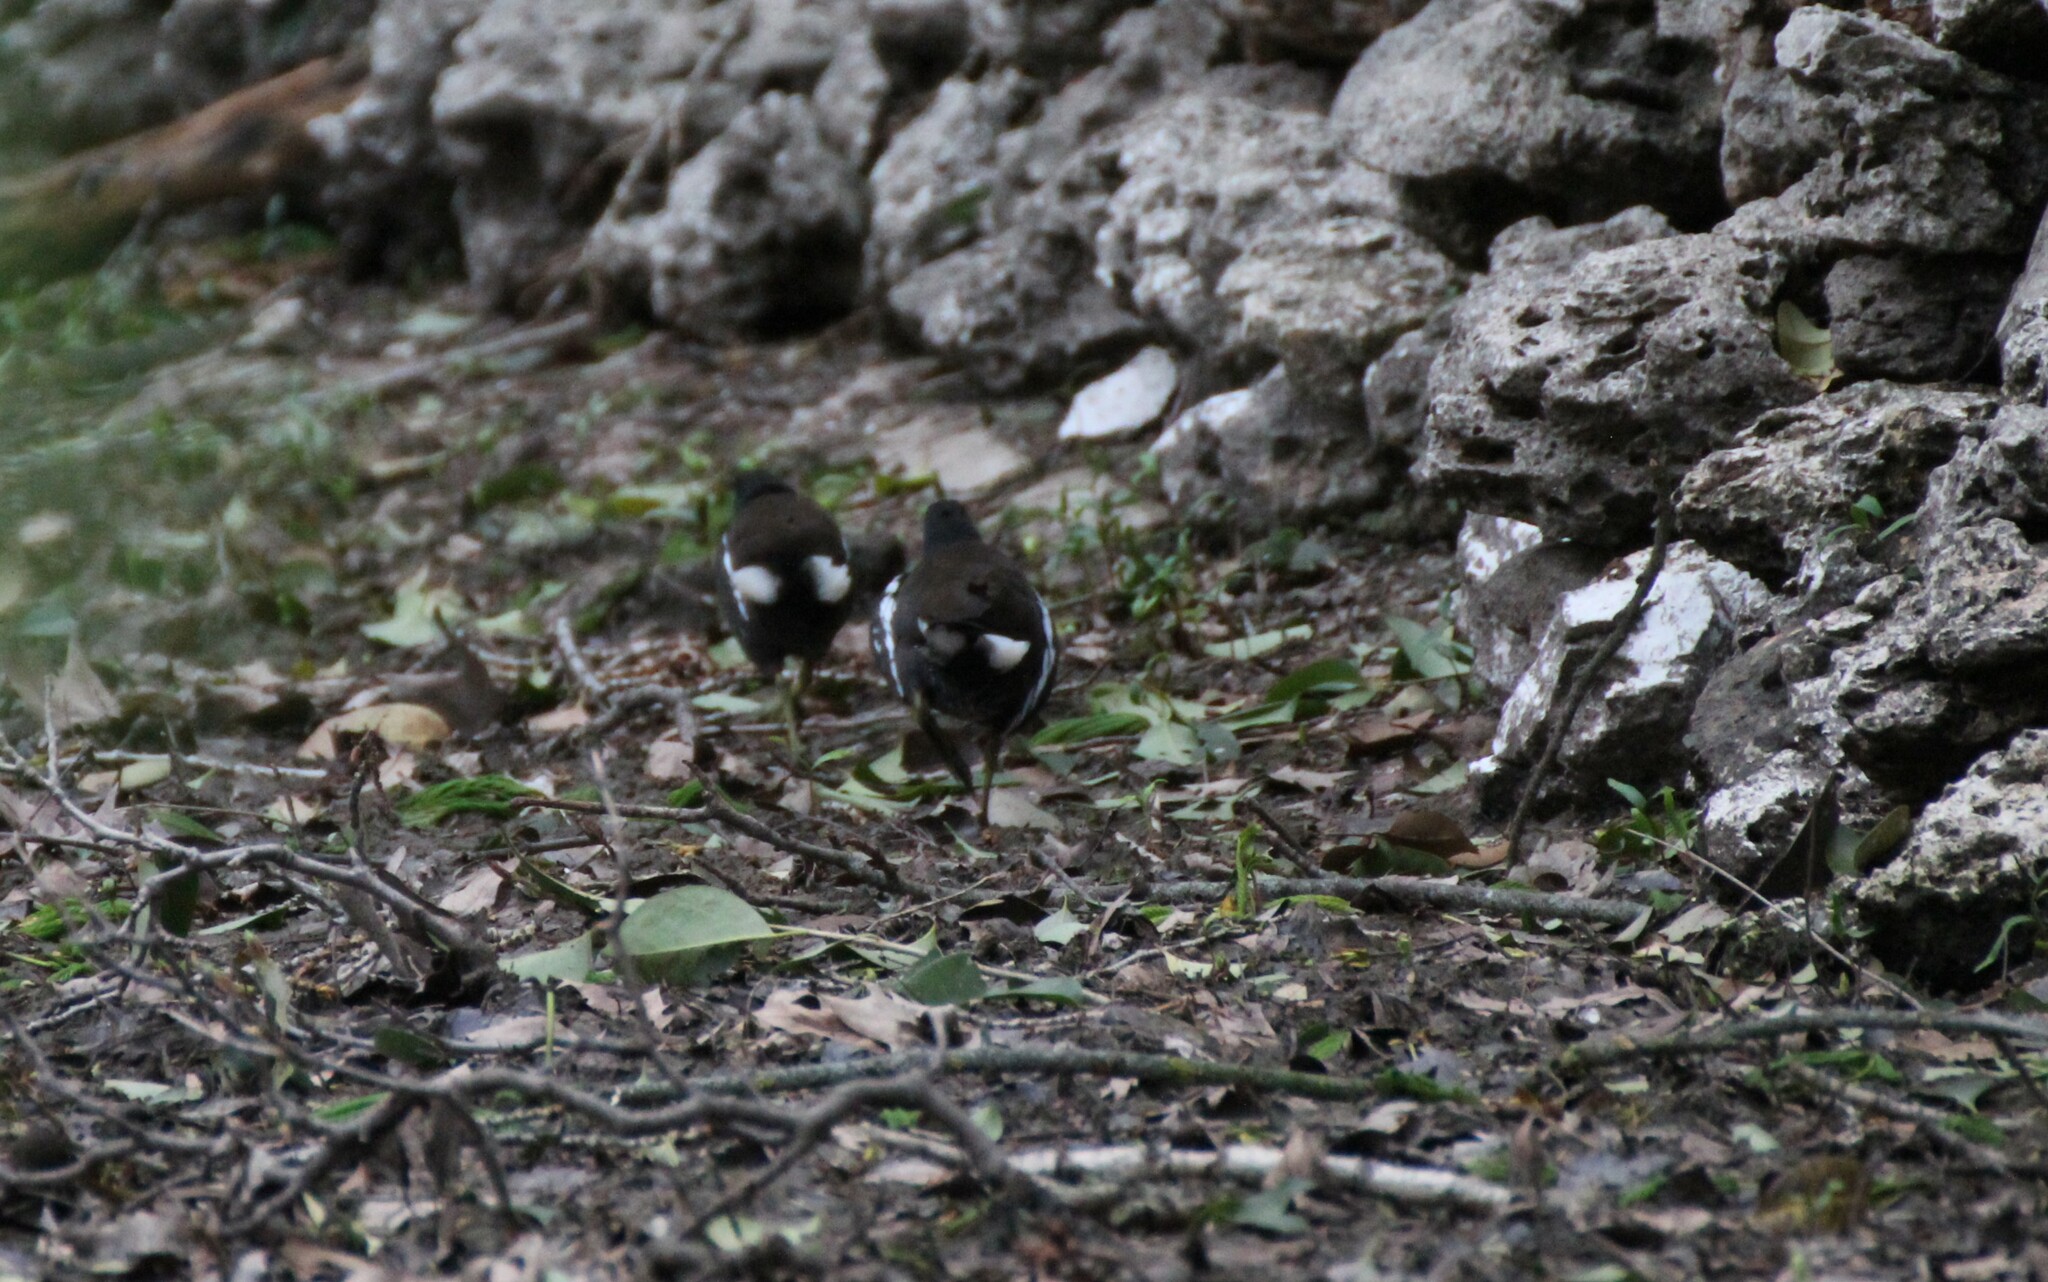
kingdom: Animalia
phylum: Chordata
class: Aves
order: Gruiformes
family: Rallidae
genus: Gallinula
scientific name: Gallinula chloropus
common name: Common moorhen
